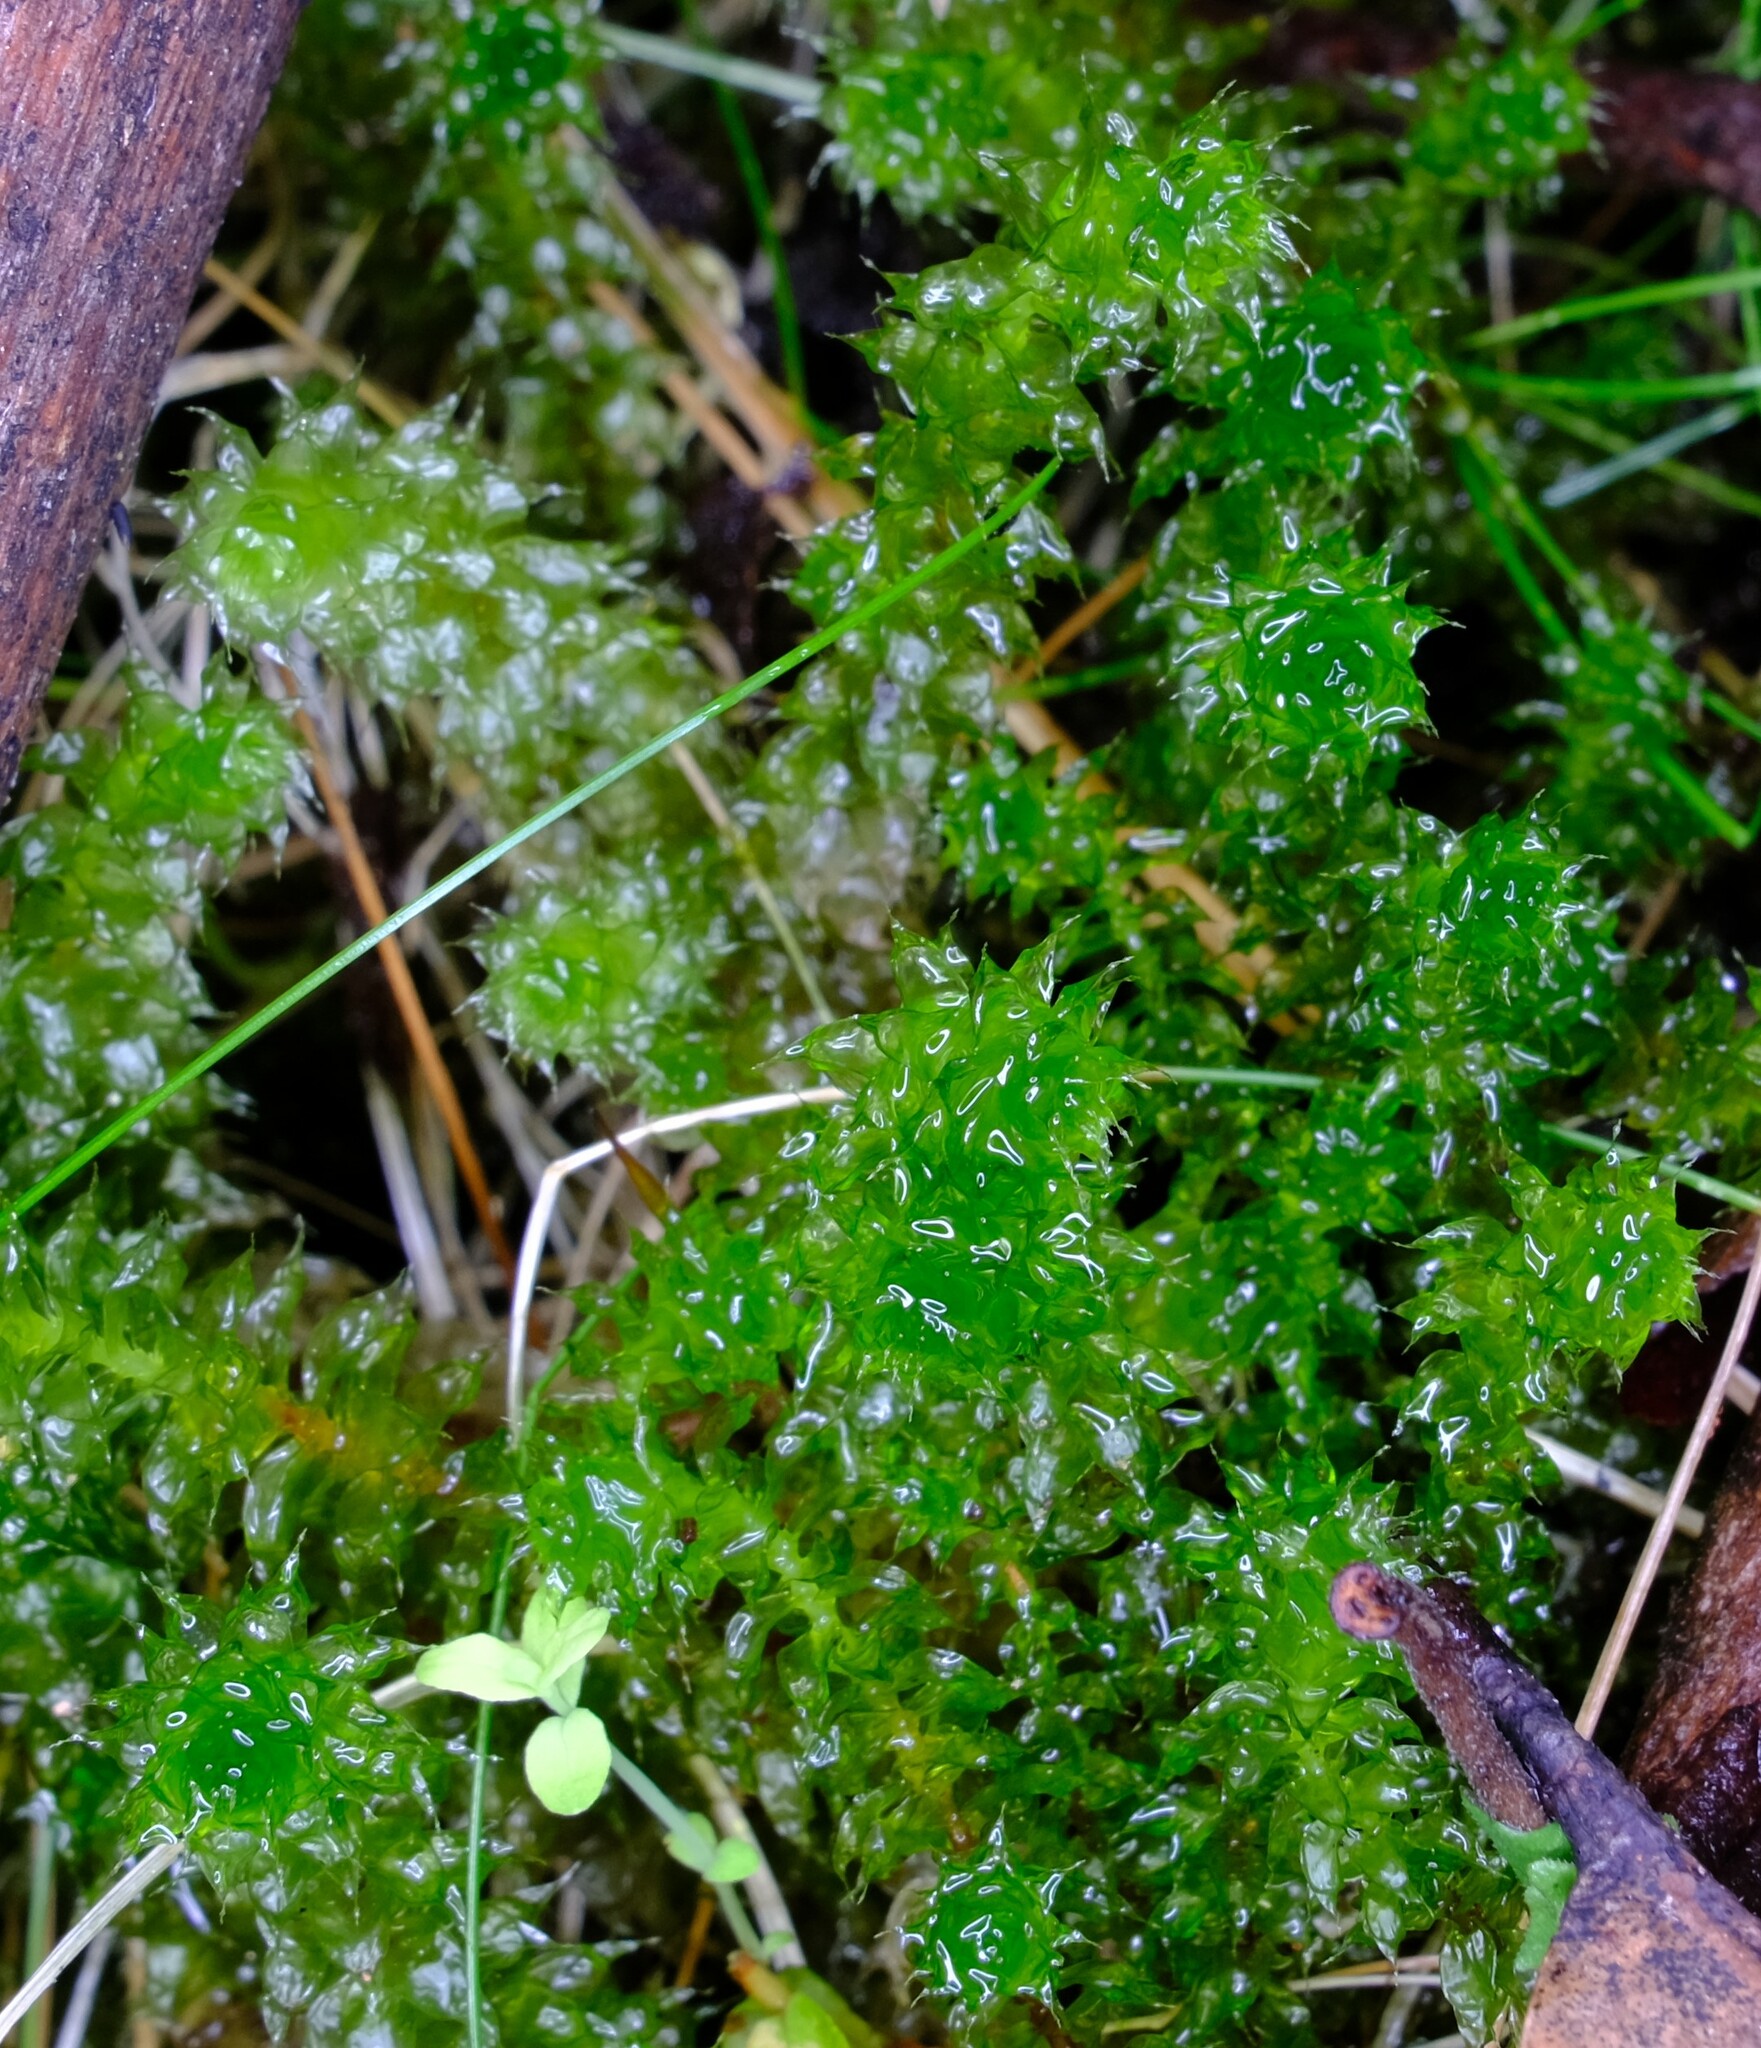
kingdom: Plantae
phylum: Bryophyta
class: Bryopsida
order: Ptychomniales
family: Ptychomniaceae
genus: Ptychomnion
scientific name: Ptychomnion aciculare
